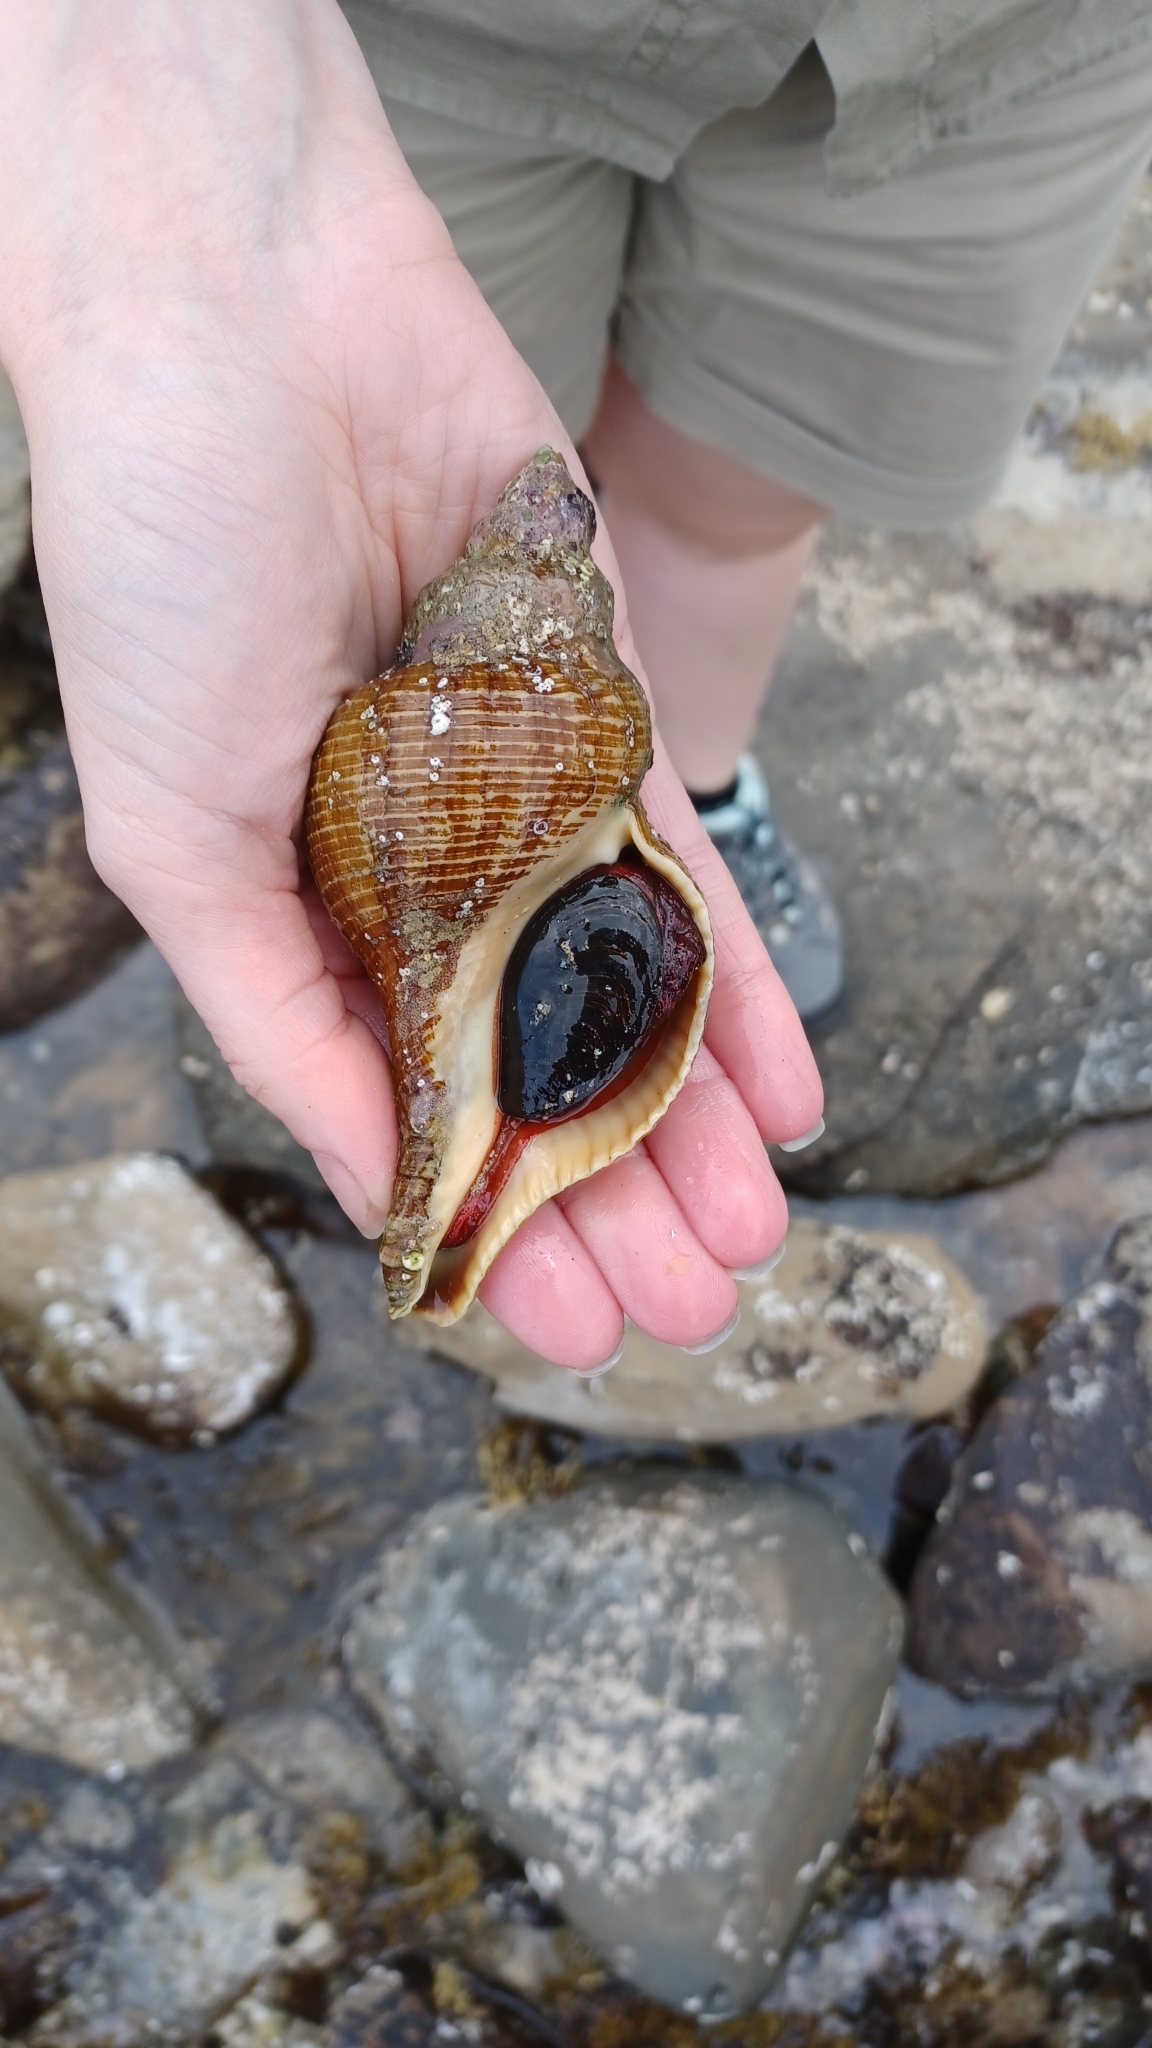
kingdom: Animalia
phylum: Mollusca
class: Gastropoda
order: Neogastropoda
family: Fasciolariidae
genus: Australaria
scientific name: Australaria australasia
